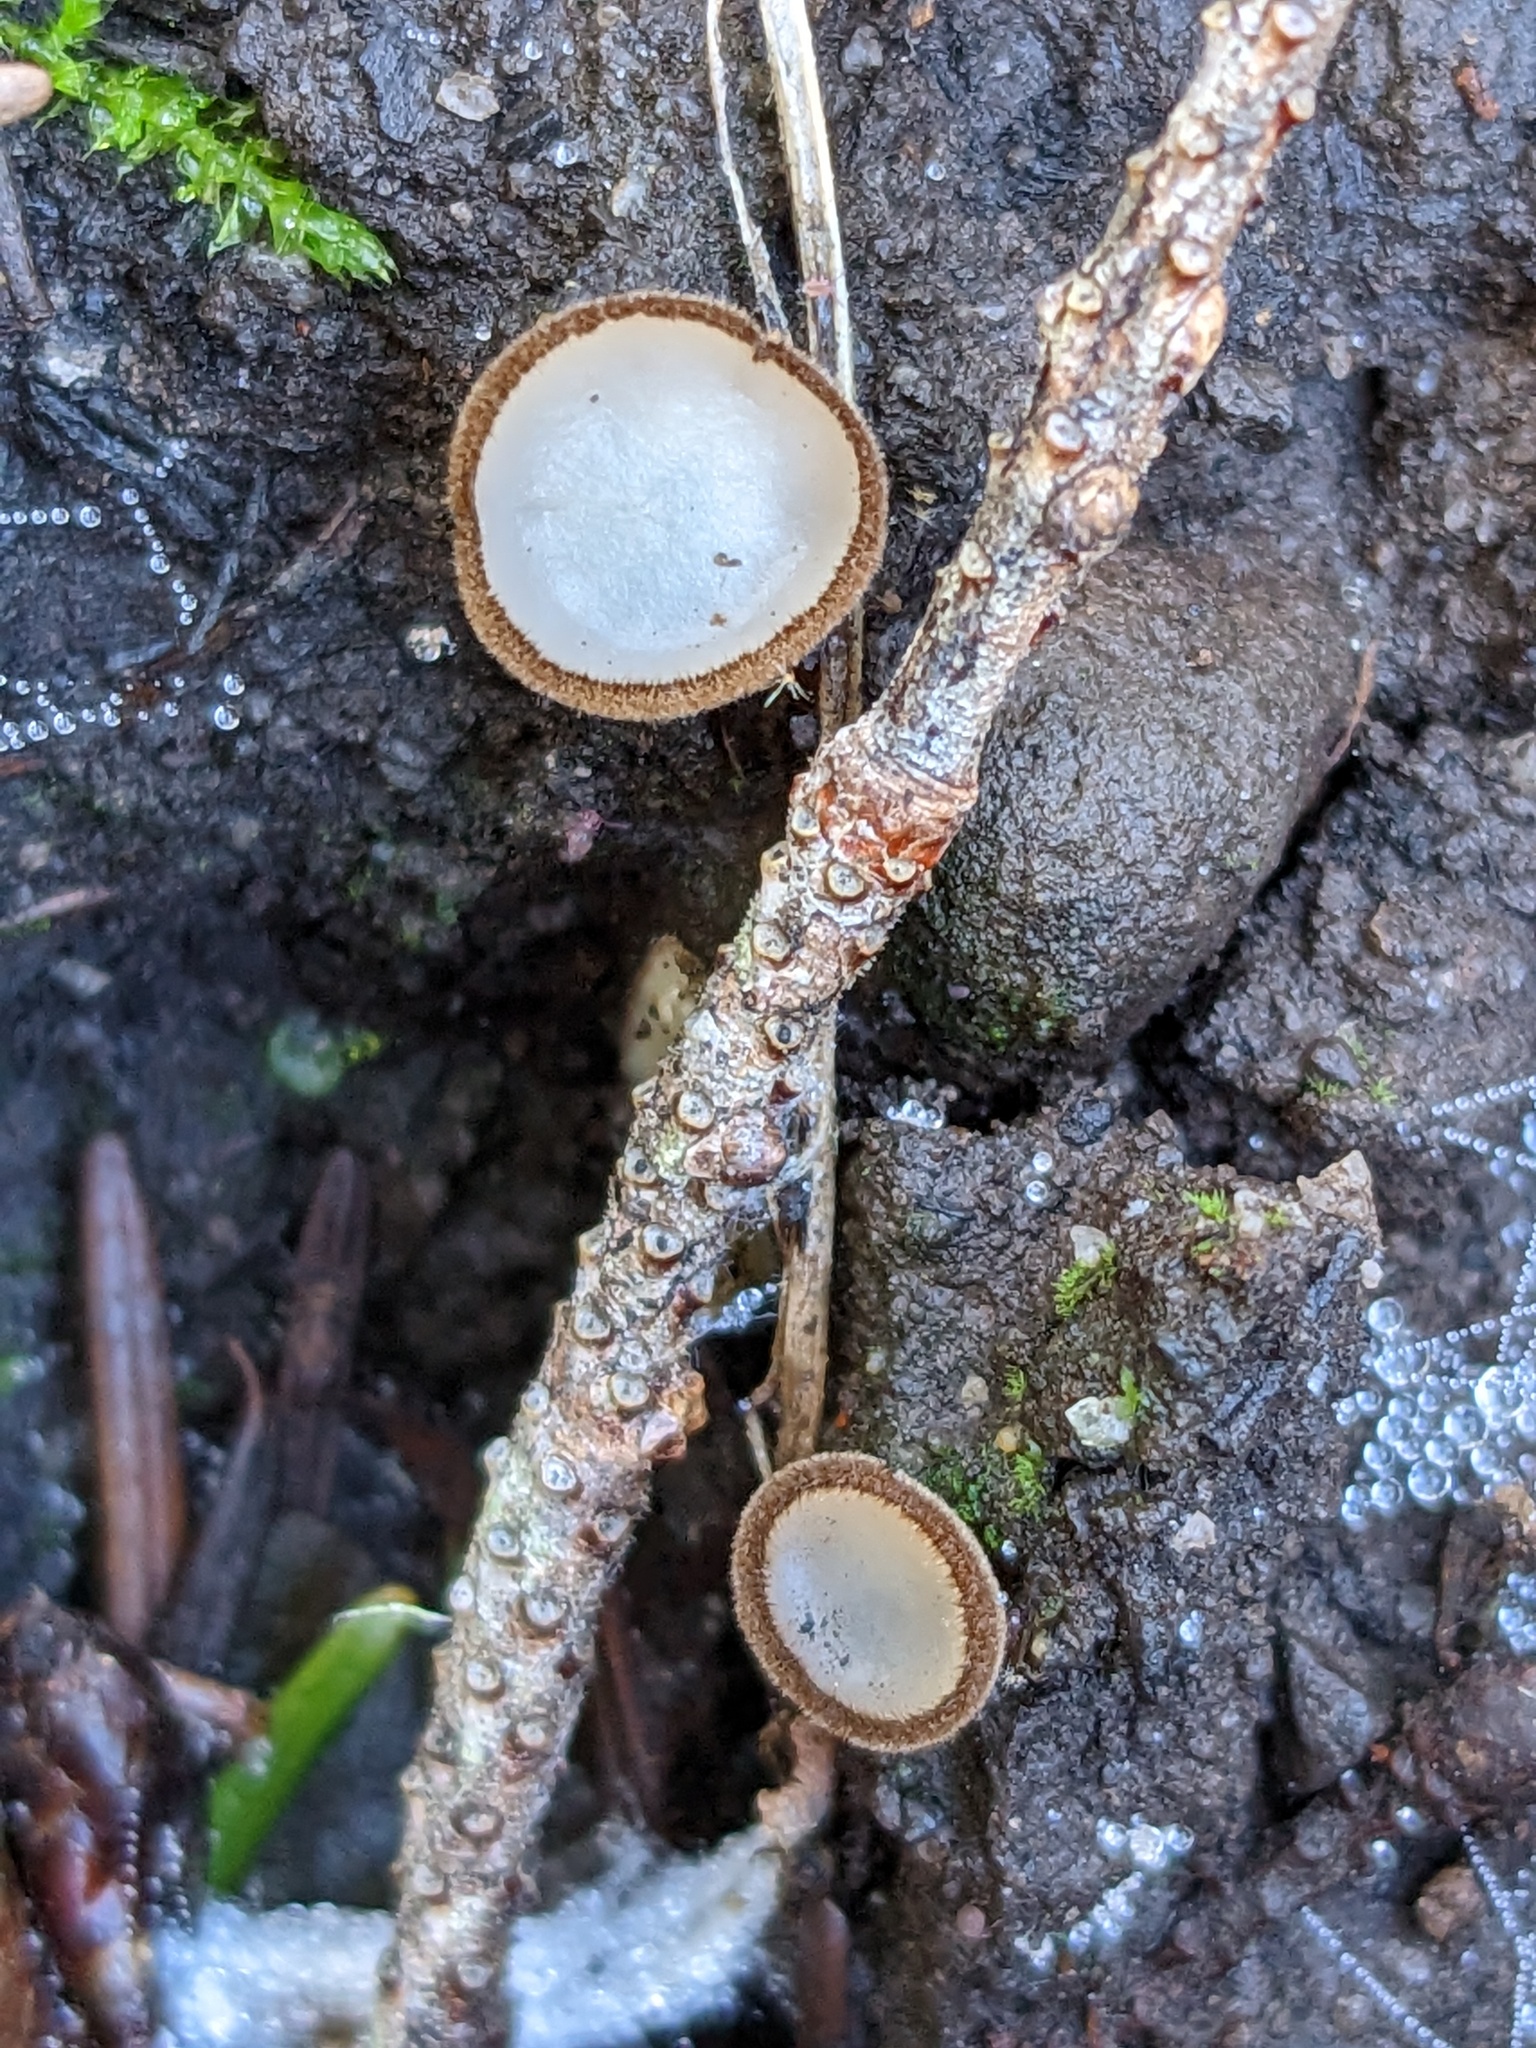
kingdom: Fungi
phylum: Ascomycota
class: Pezizomycetes
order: Pezizales
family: Pyronemataceae
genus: Humaria
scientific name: Humaria hemisphaerica
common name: Glazed cup
